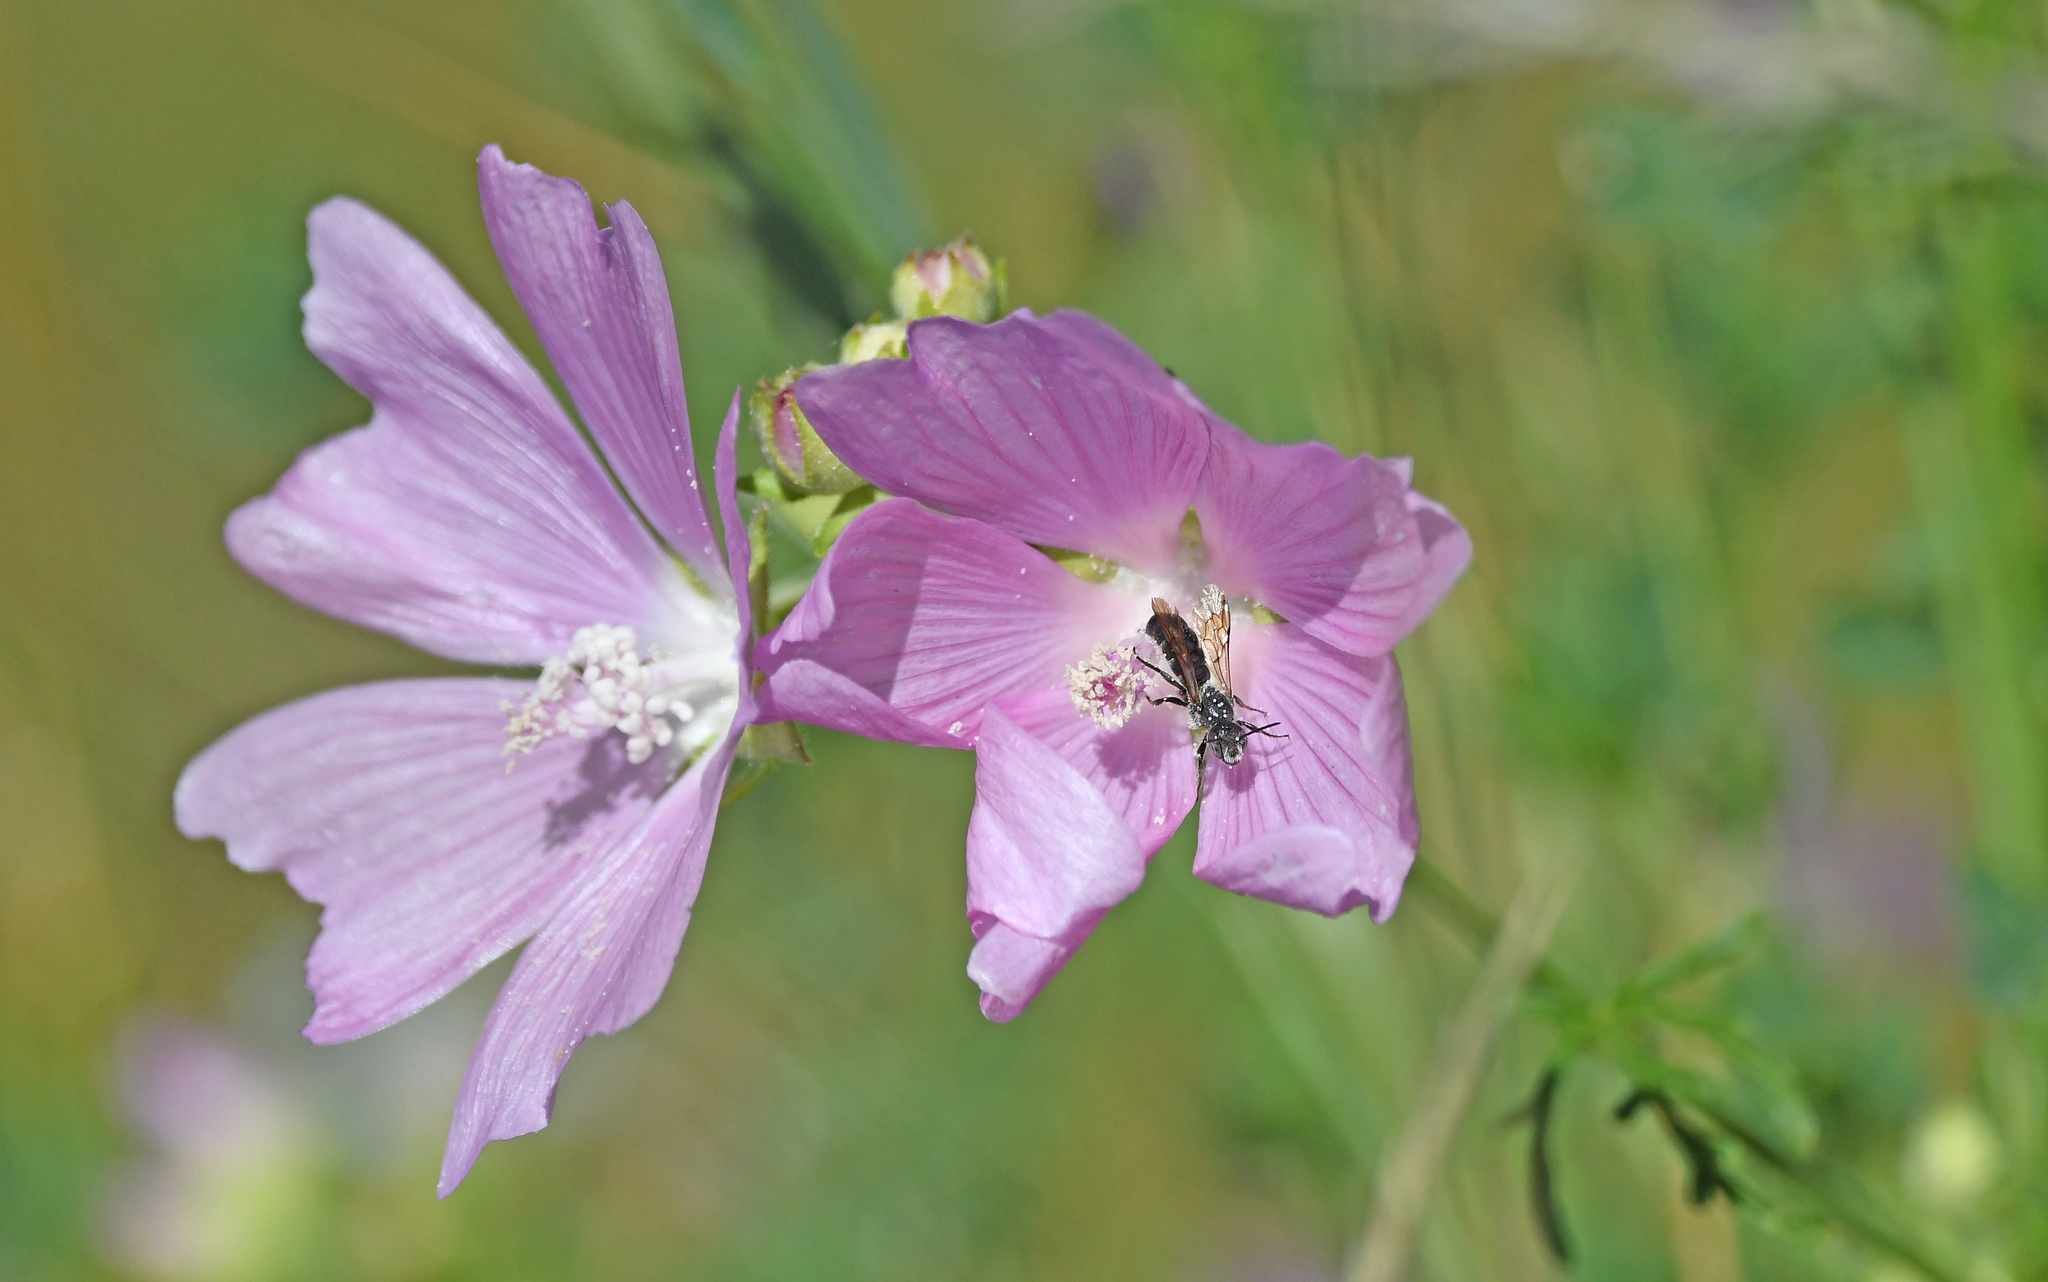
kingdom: Animalia
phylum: Arthropoda
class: Insecta
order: Hymenoptera
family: Megachilidae
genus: Chelostoma
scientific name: Chelostoma rapunculi
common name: Rampion scissor bee
